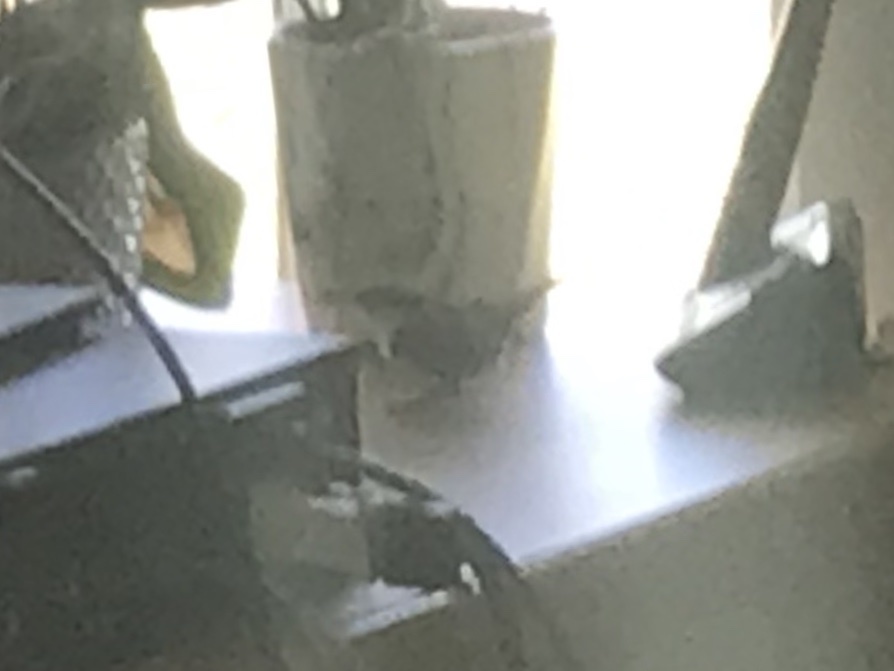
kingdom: Animalia
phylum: Chordata
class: Aves
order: Passeriformes
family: Troglodytidae
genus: Thryothorus
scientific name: Thryothorus ludovicianus
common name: Carolina wren
